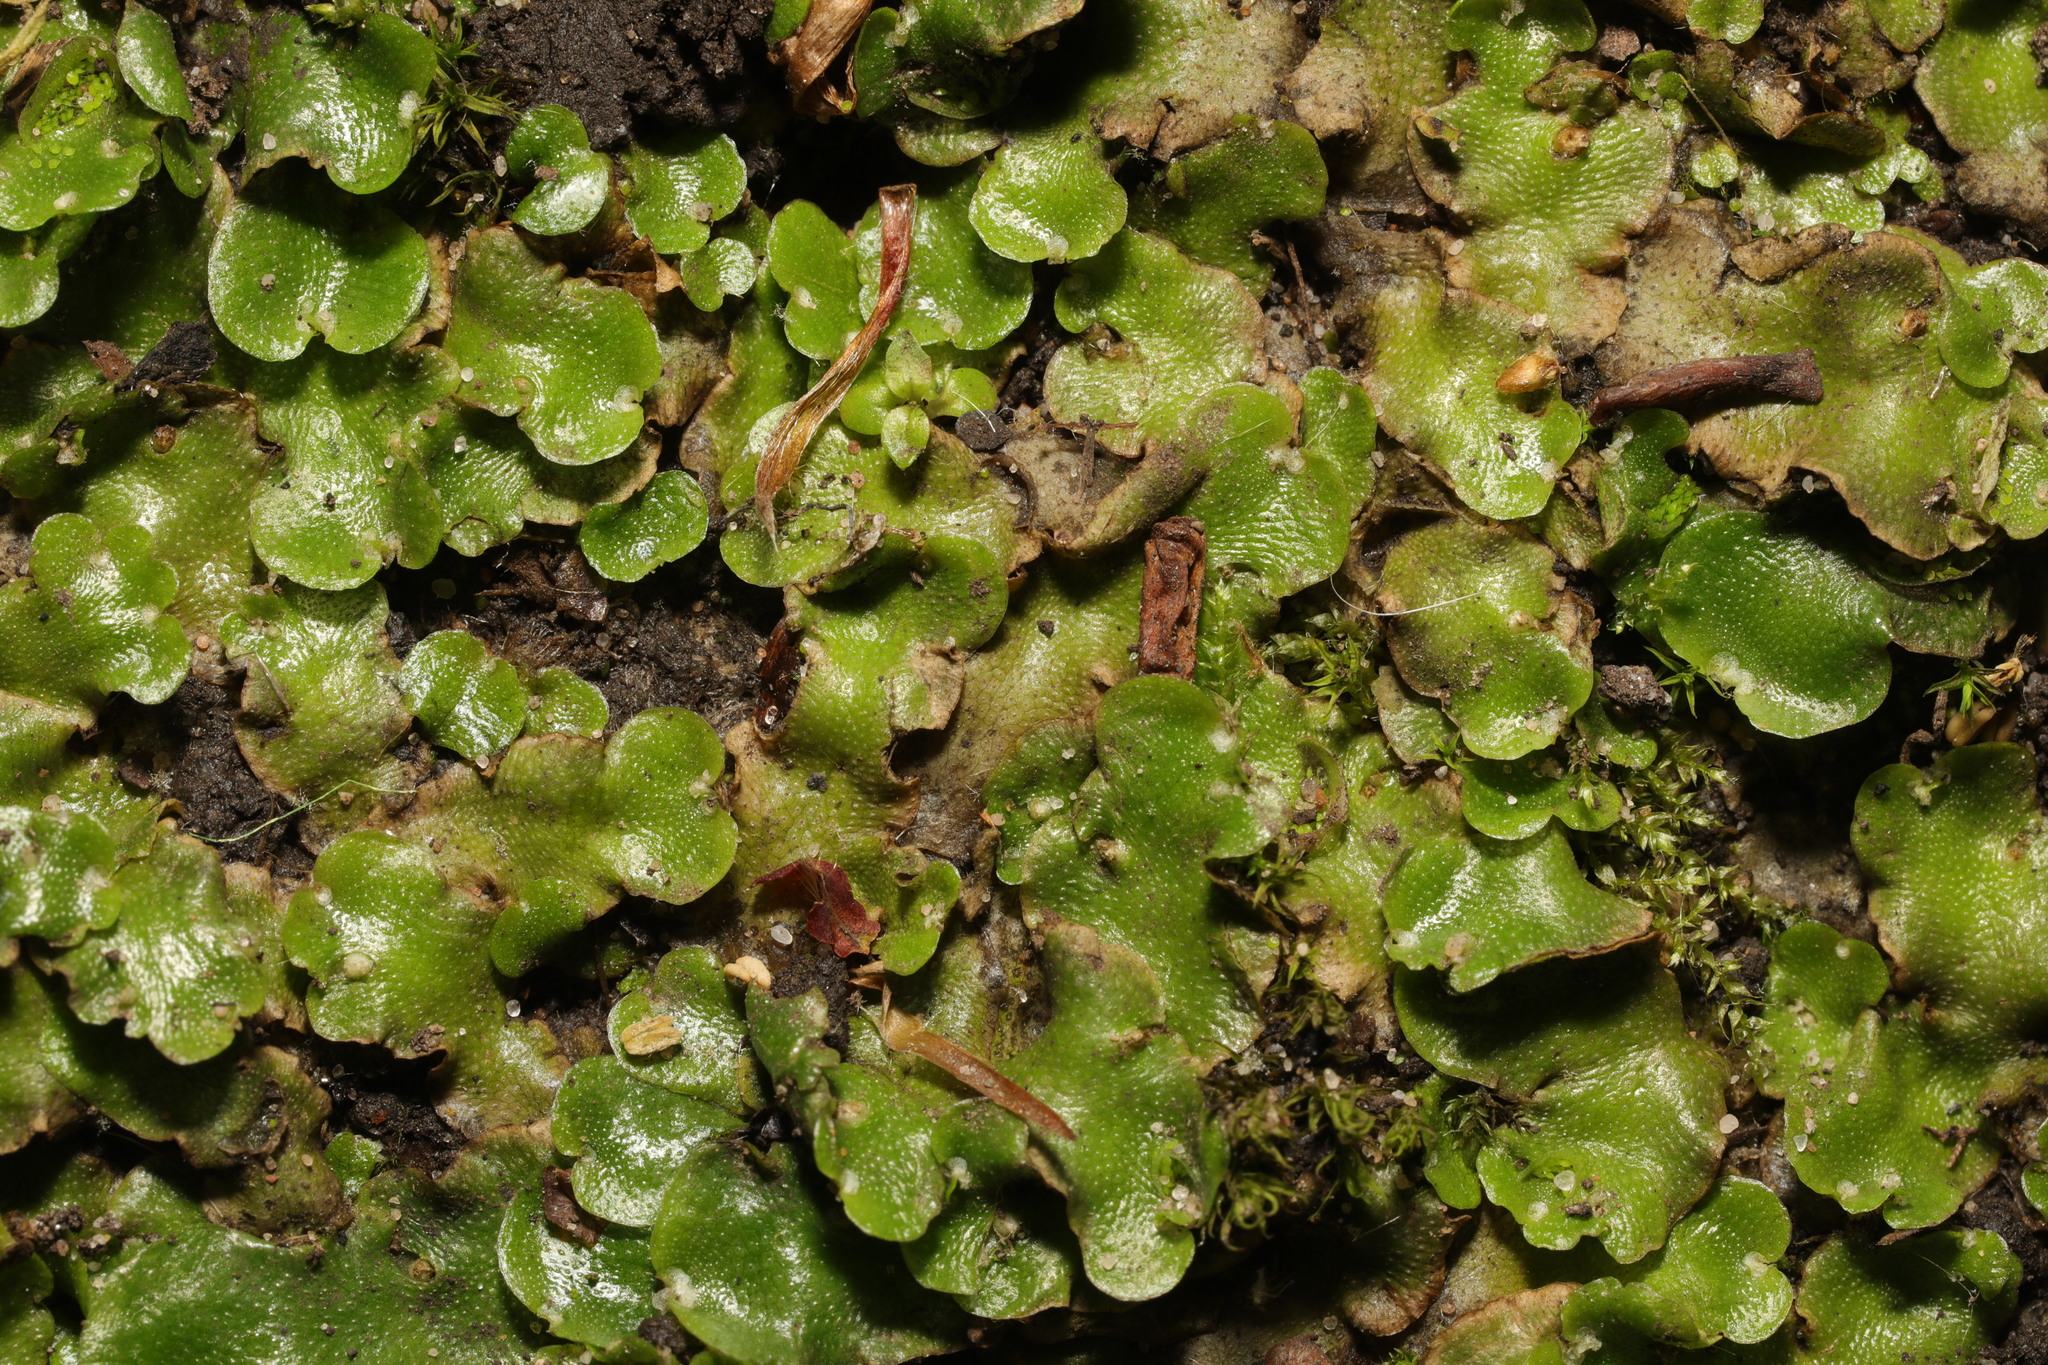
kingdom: Plantae
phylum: Marchantiophyta
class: Marchantiopsida
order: Lunulariales
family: Lunulariaceae
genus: Lunularia
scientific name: Lunularia cruciata
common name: Crescent-cup liverwort
